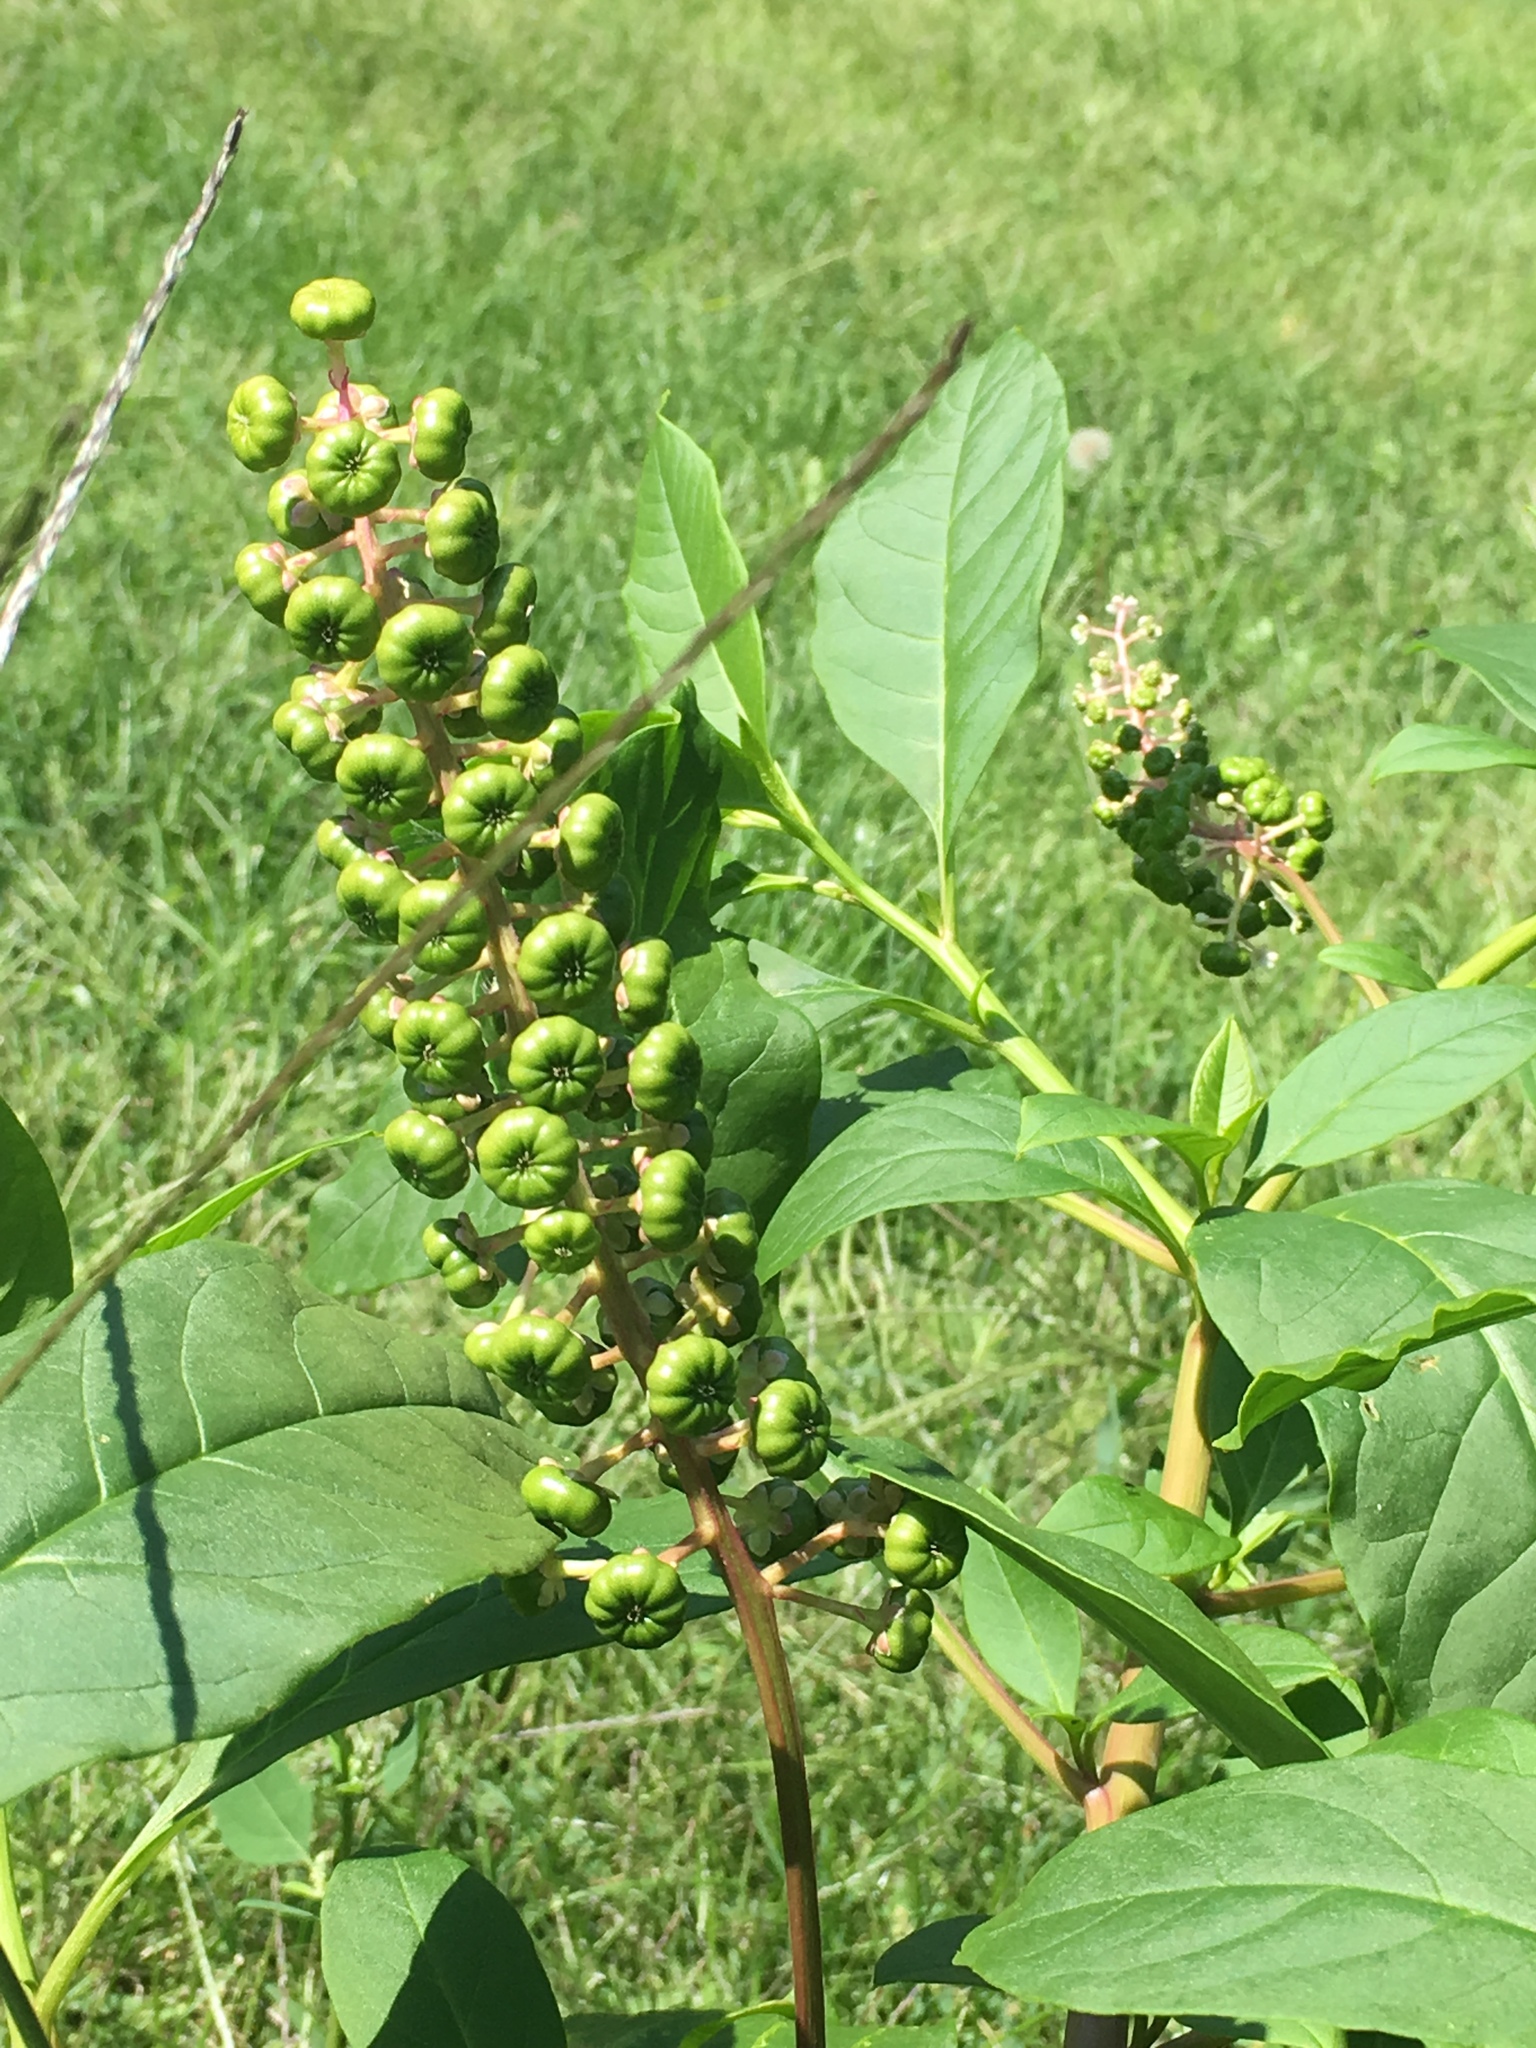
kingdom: Plantae
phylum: Tracheophyta
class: Magnoliopsida
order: Caryophyllales
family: Phytolaccaceae
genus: Phytolacca
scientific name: Phytolacca americana
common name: American pokeweed
